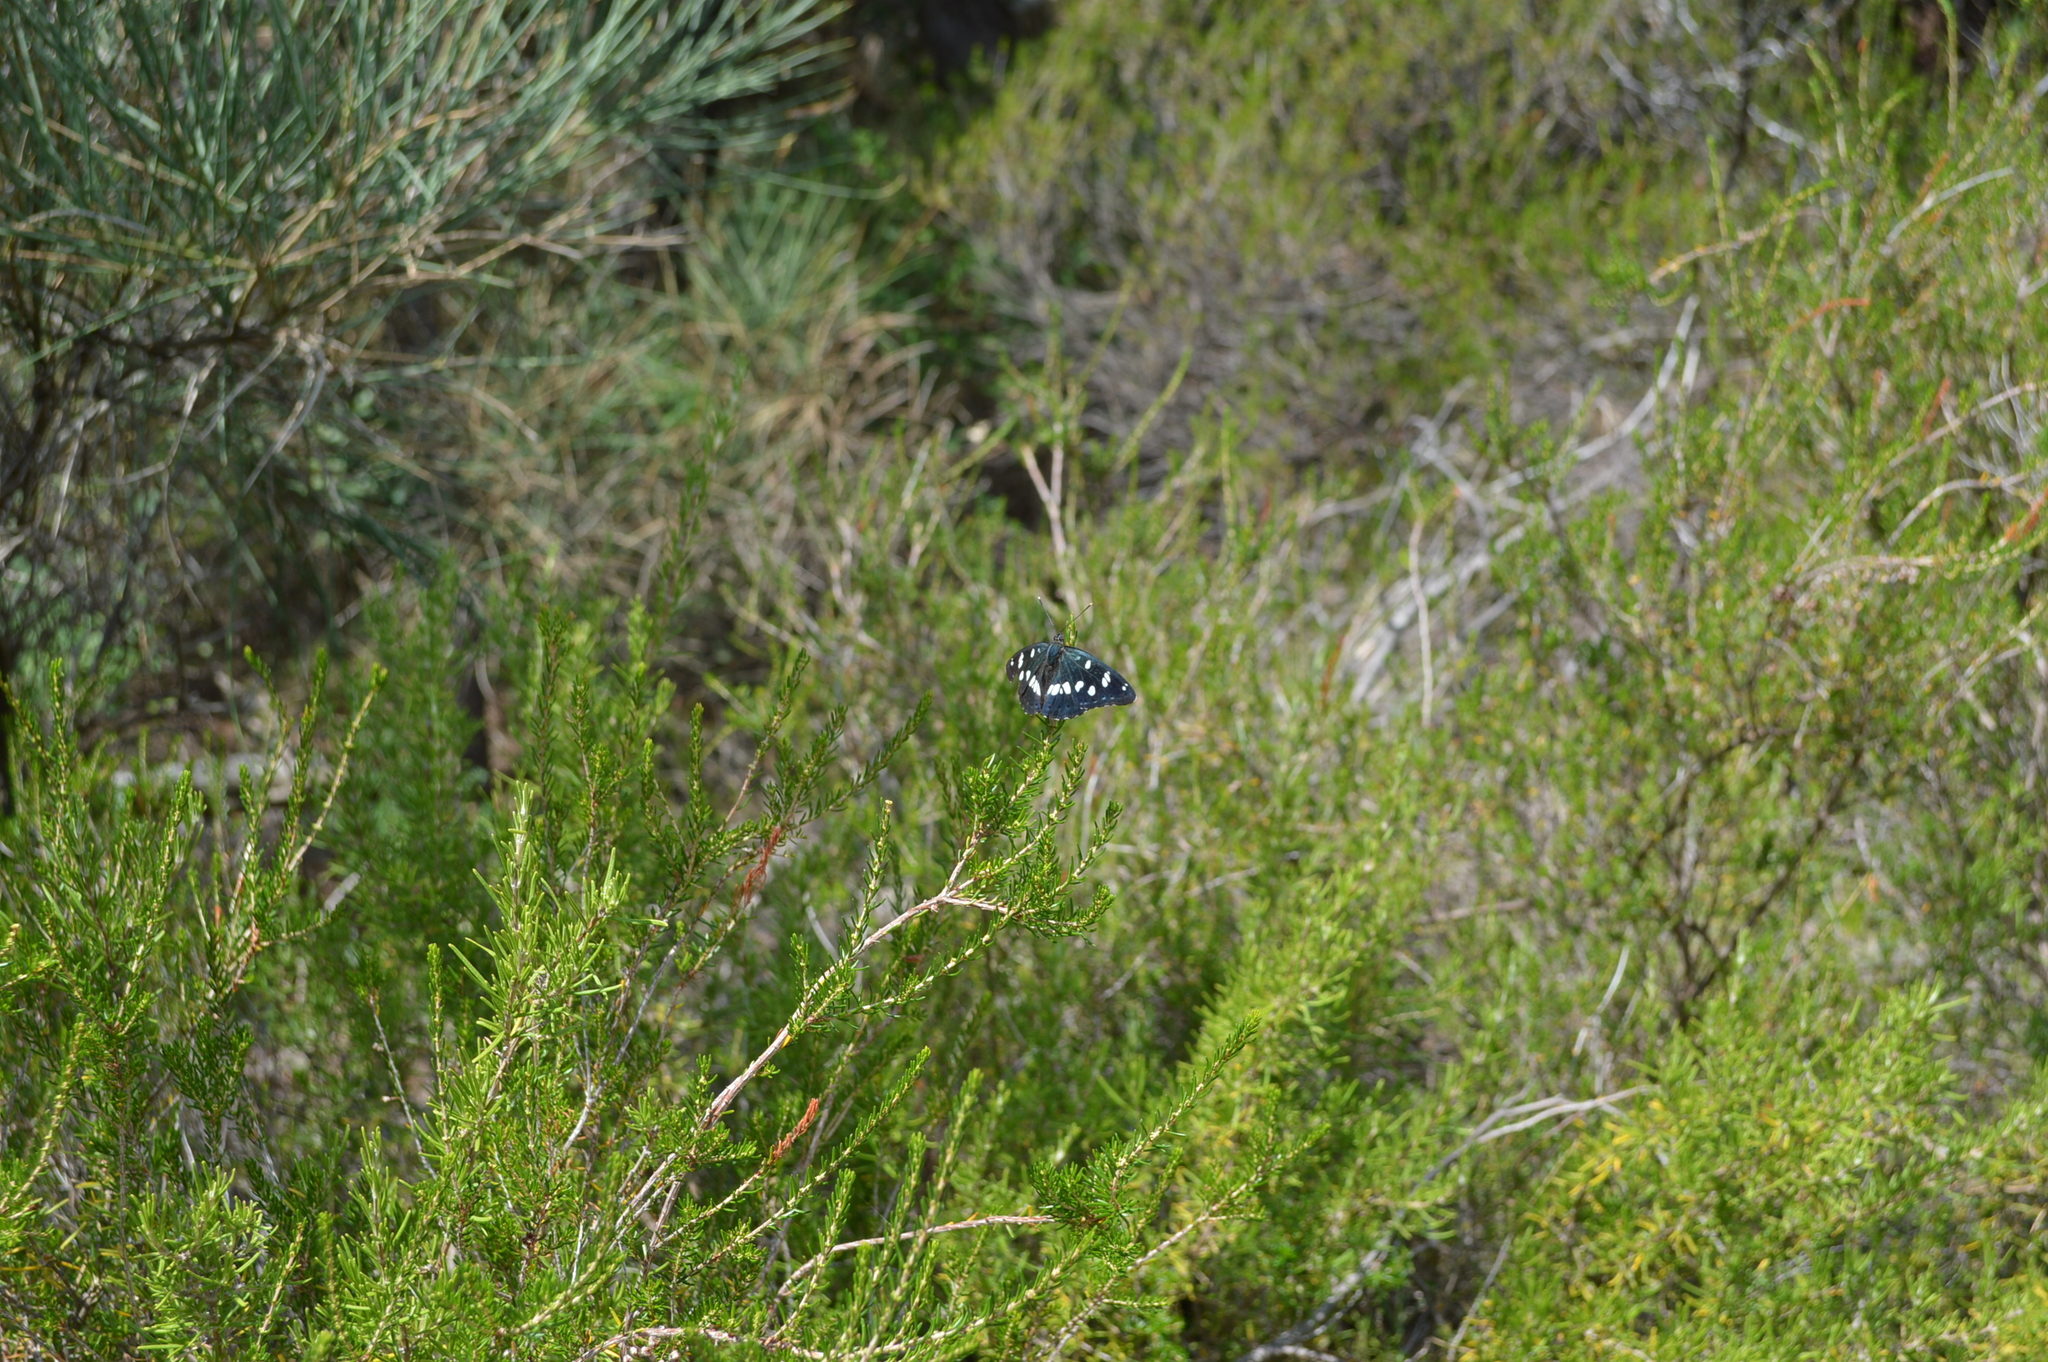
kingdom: Animalia
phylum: Arthropoda
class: Insecta
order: Lepidoptera
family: Nymphalidae
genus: Limenitis
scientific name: Limenitis reducta
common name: Southern white admiral
